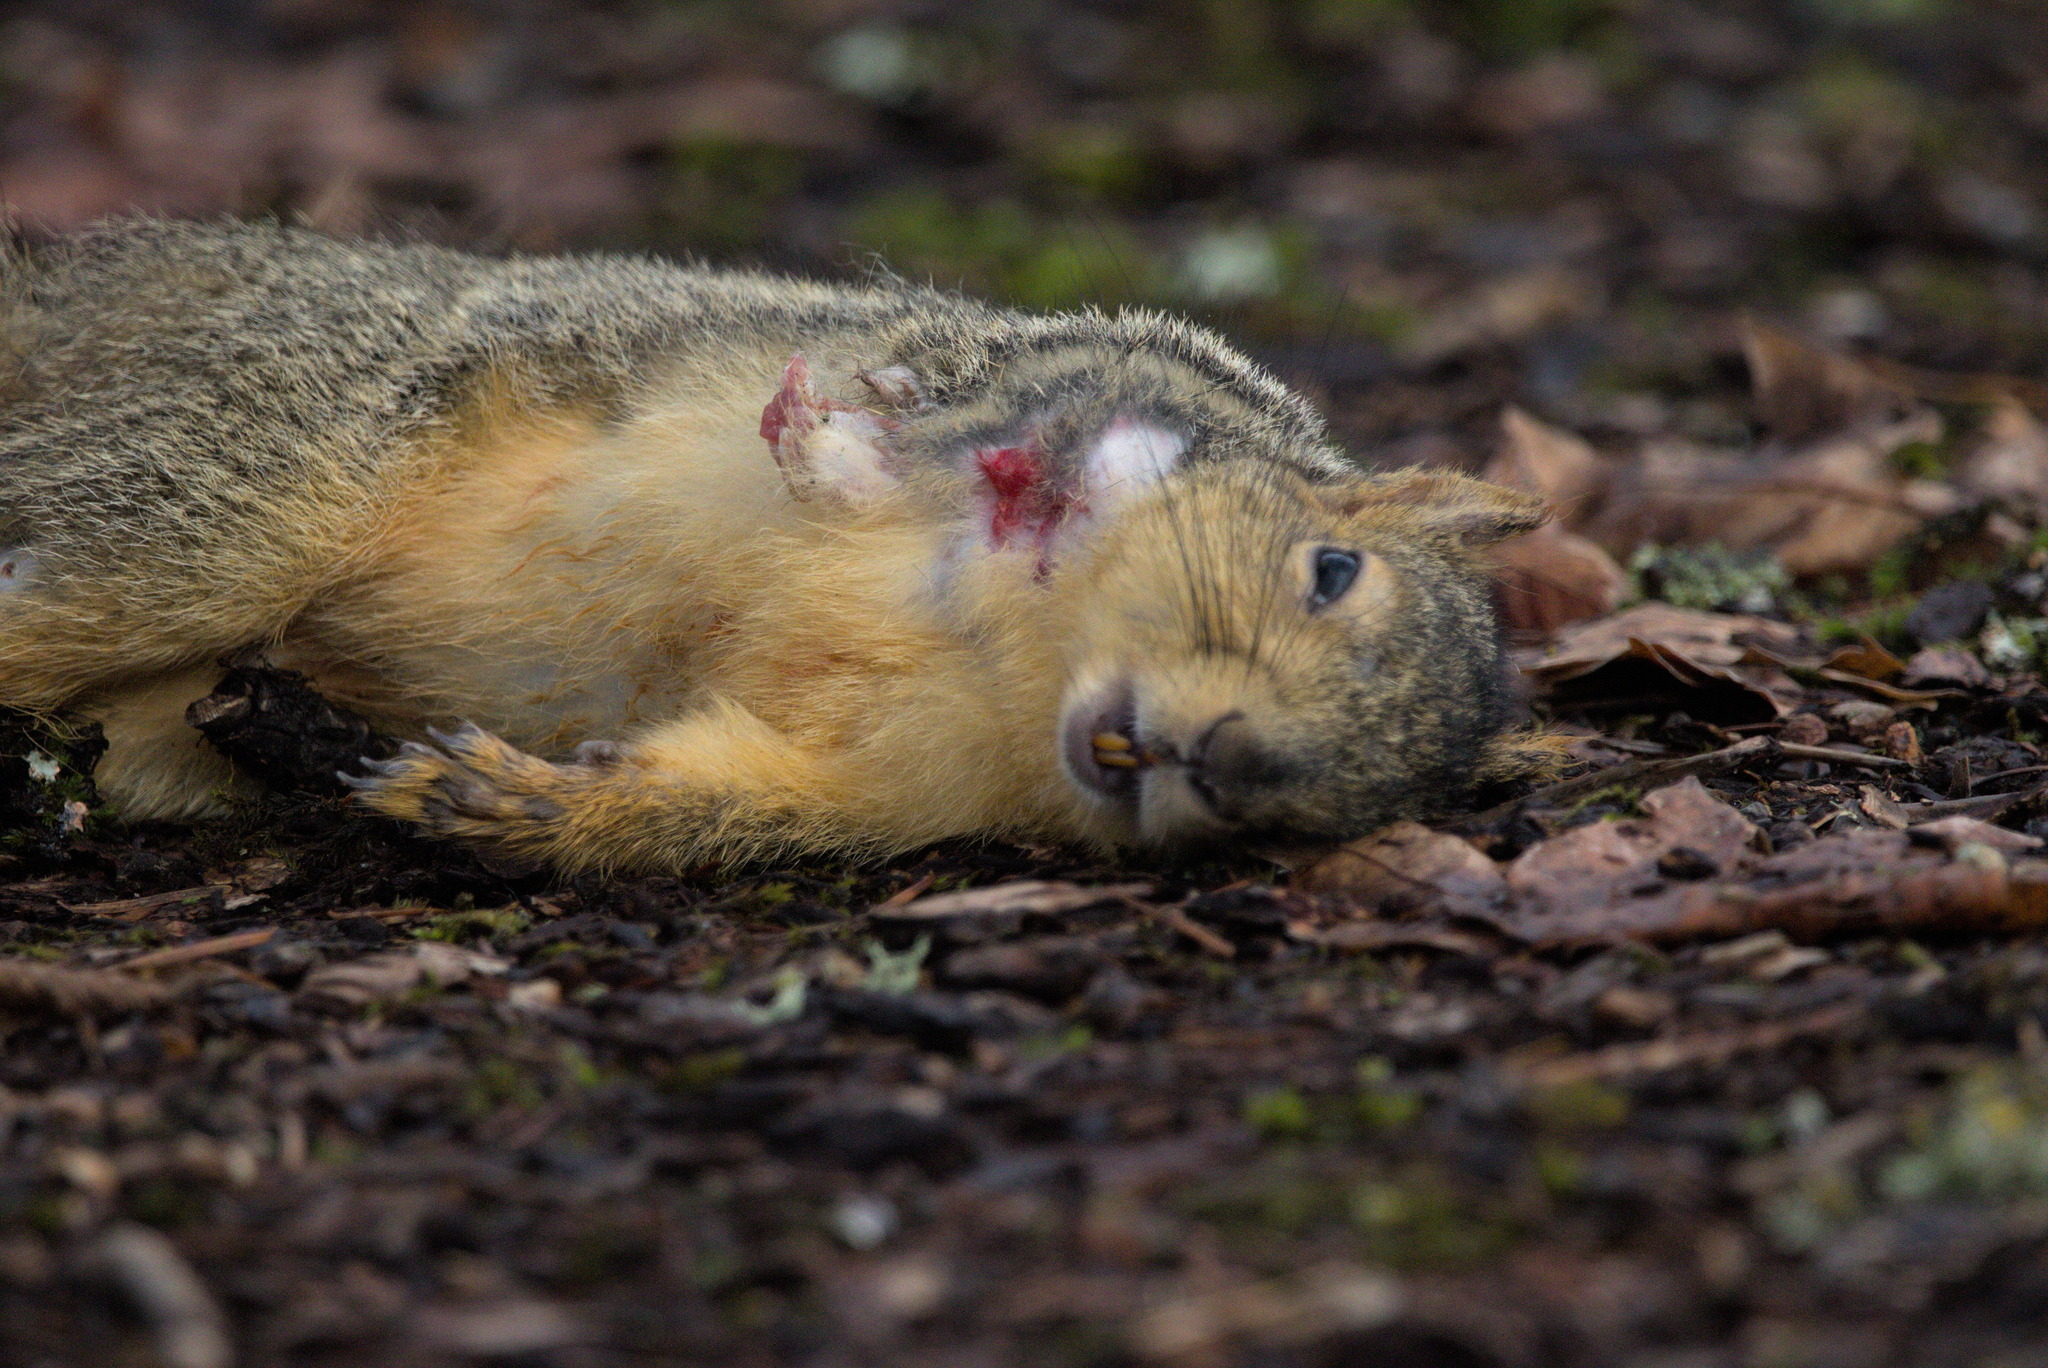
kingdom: Animalia
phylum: Chordata
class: Mammalia
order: Rodentia
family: Sciuridae
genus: Sciurus
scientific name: Sciurus niger
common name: Fox squirrel
